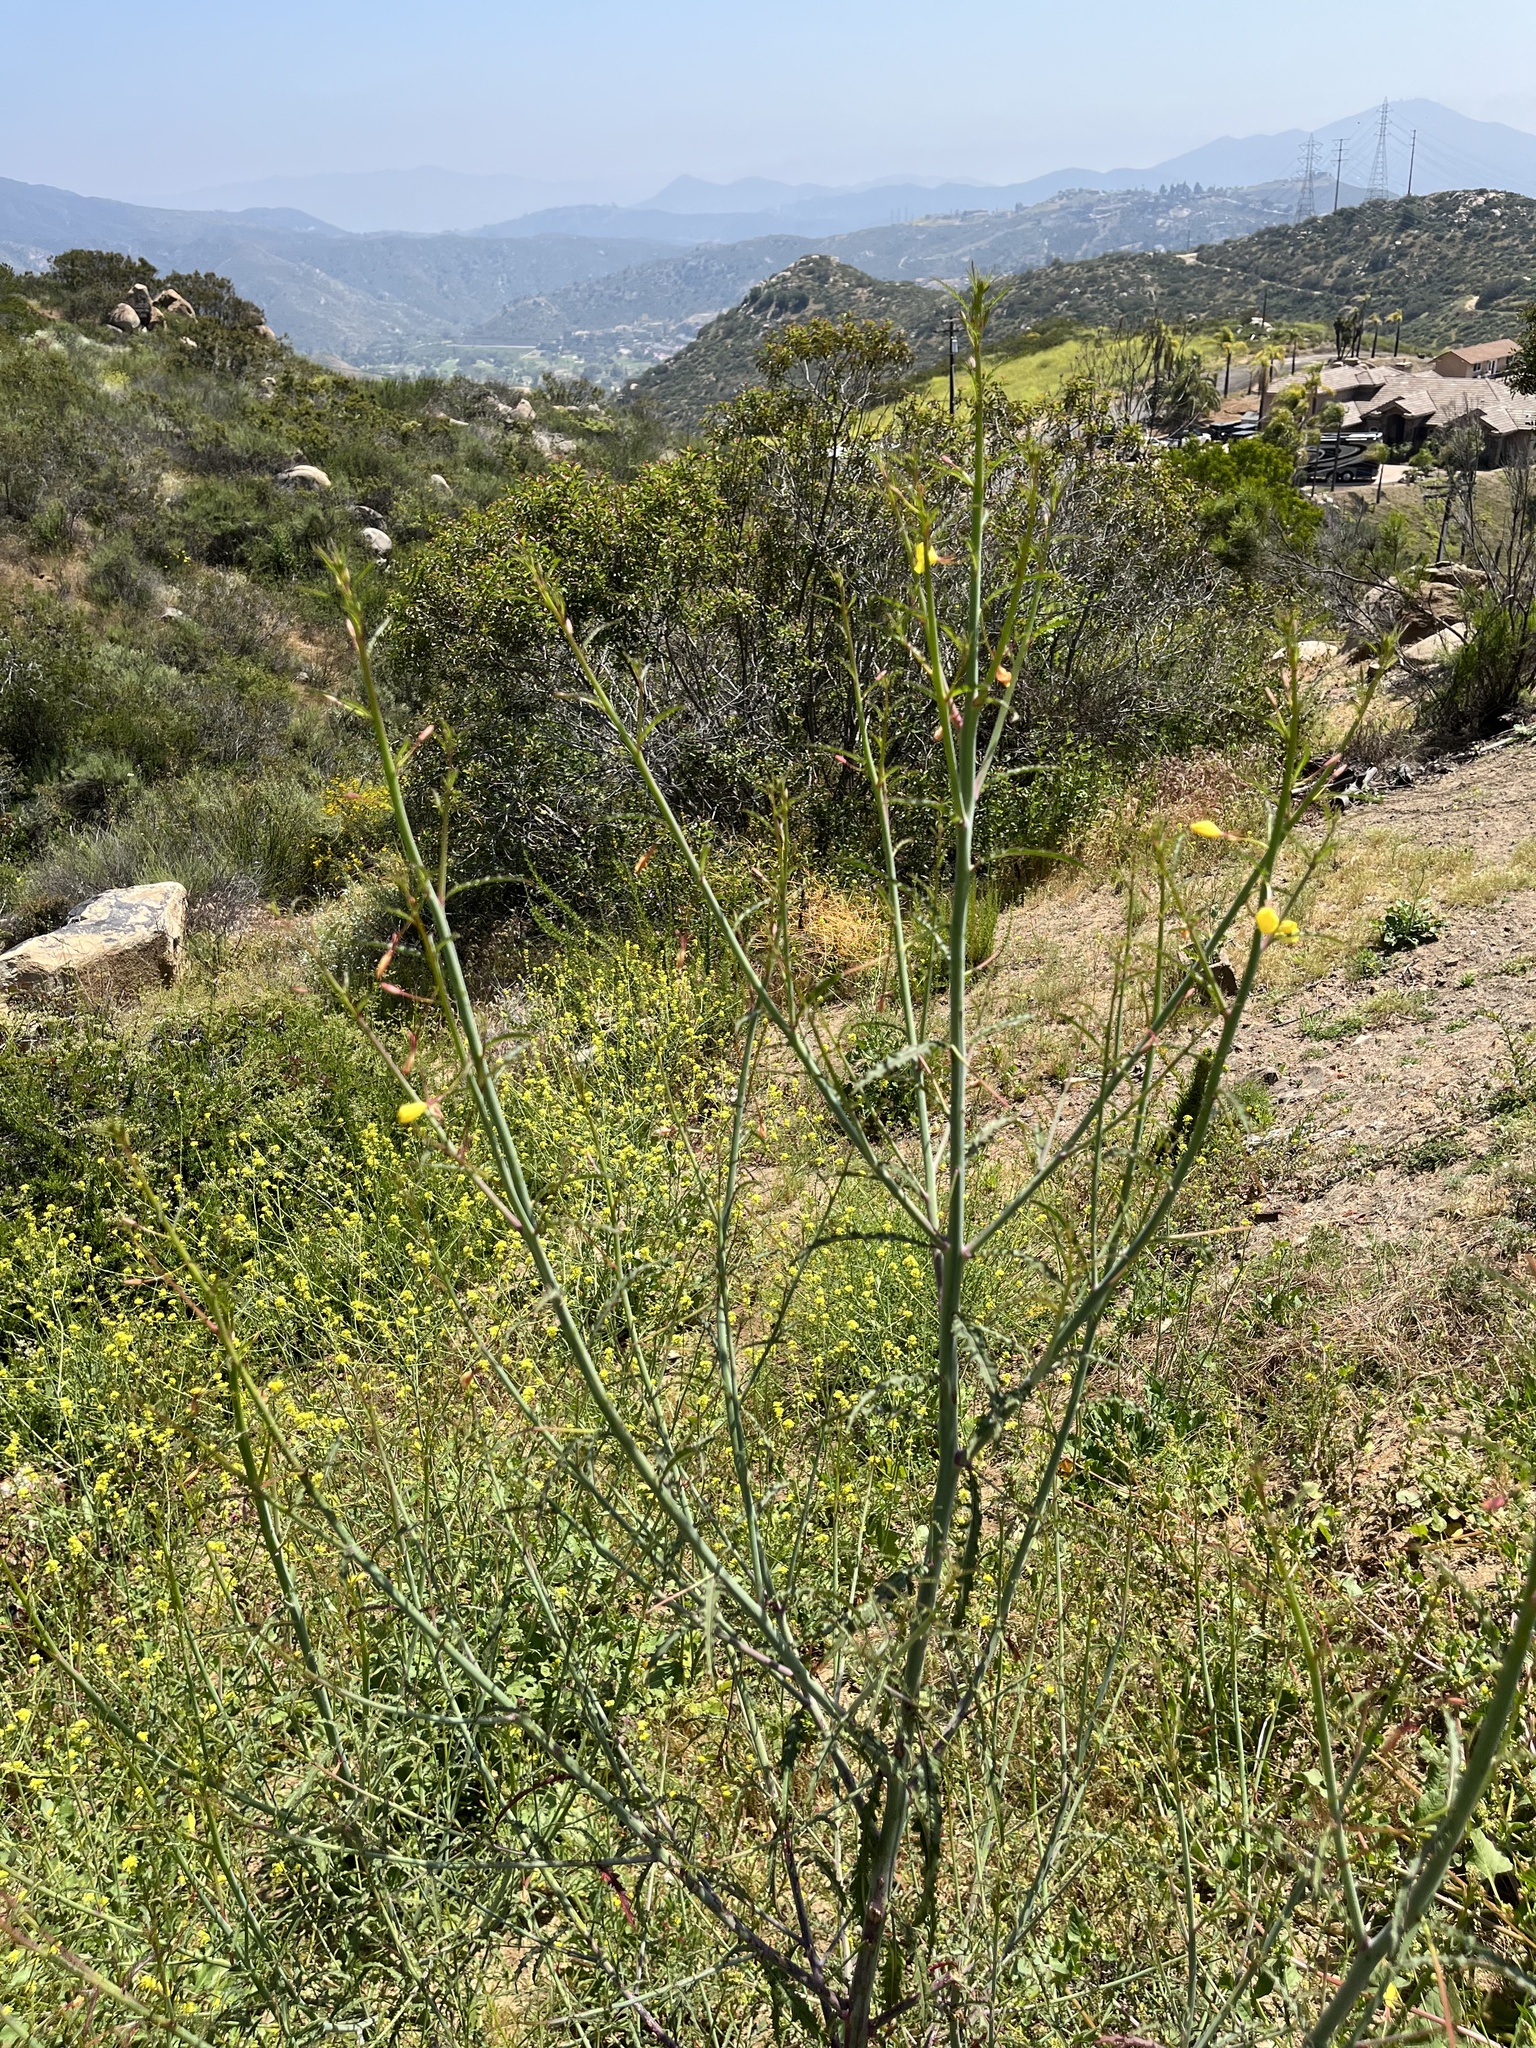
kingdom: Plantae
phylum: Tracheophyta
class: Magnoliopsida
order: Myrtales
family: Onagraceae
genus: Eulobus
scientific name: Eulobus californicus
